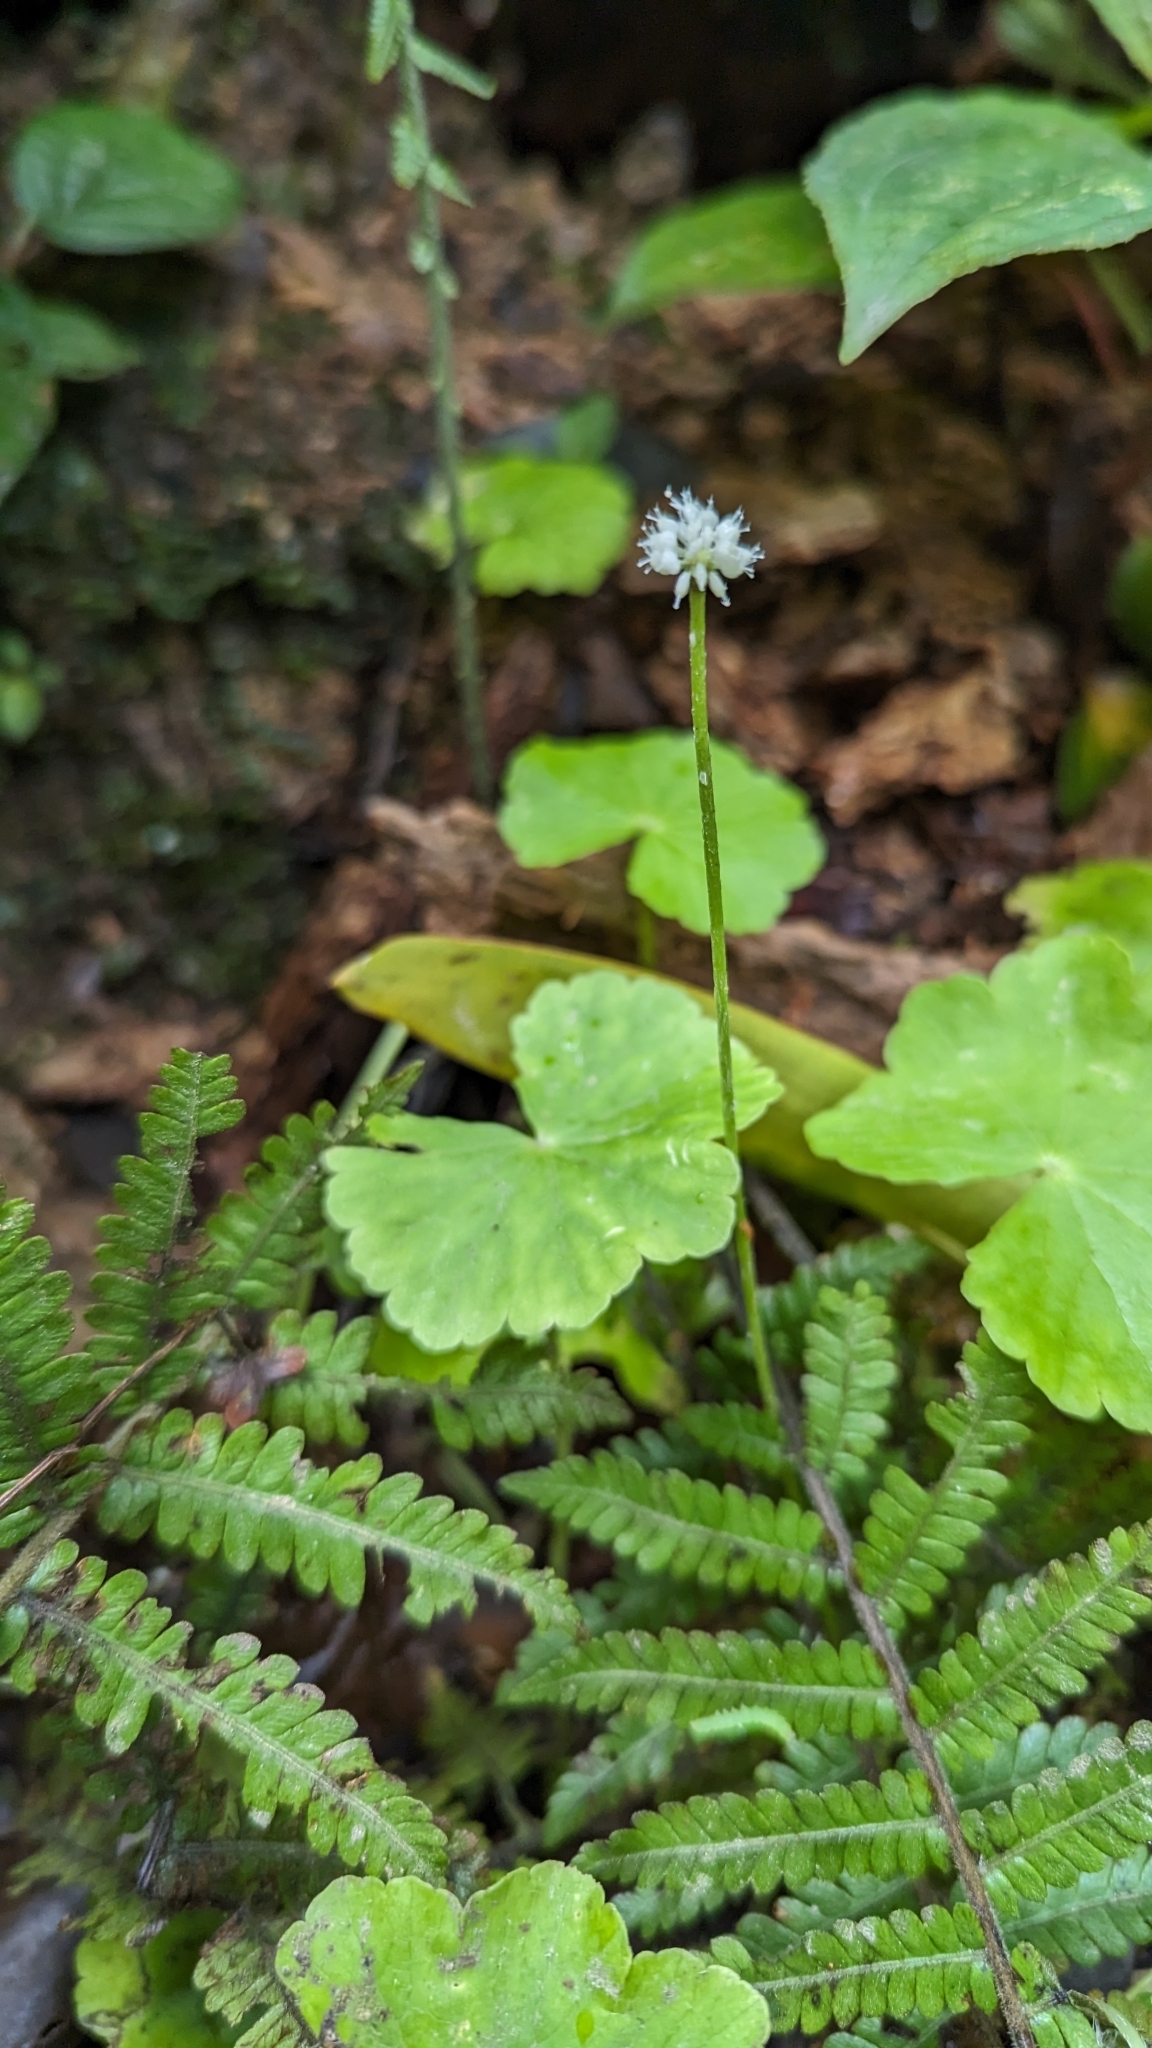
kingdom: Plantae
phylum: Tracheophyta
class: Magnoliopsida
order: Apiales
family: Araliaceae
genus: Hydrocotyle
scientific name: Hydrocotyle leucocephala
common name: Brazilian pennywort
